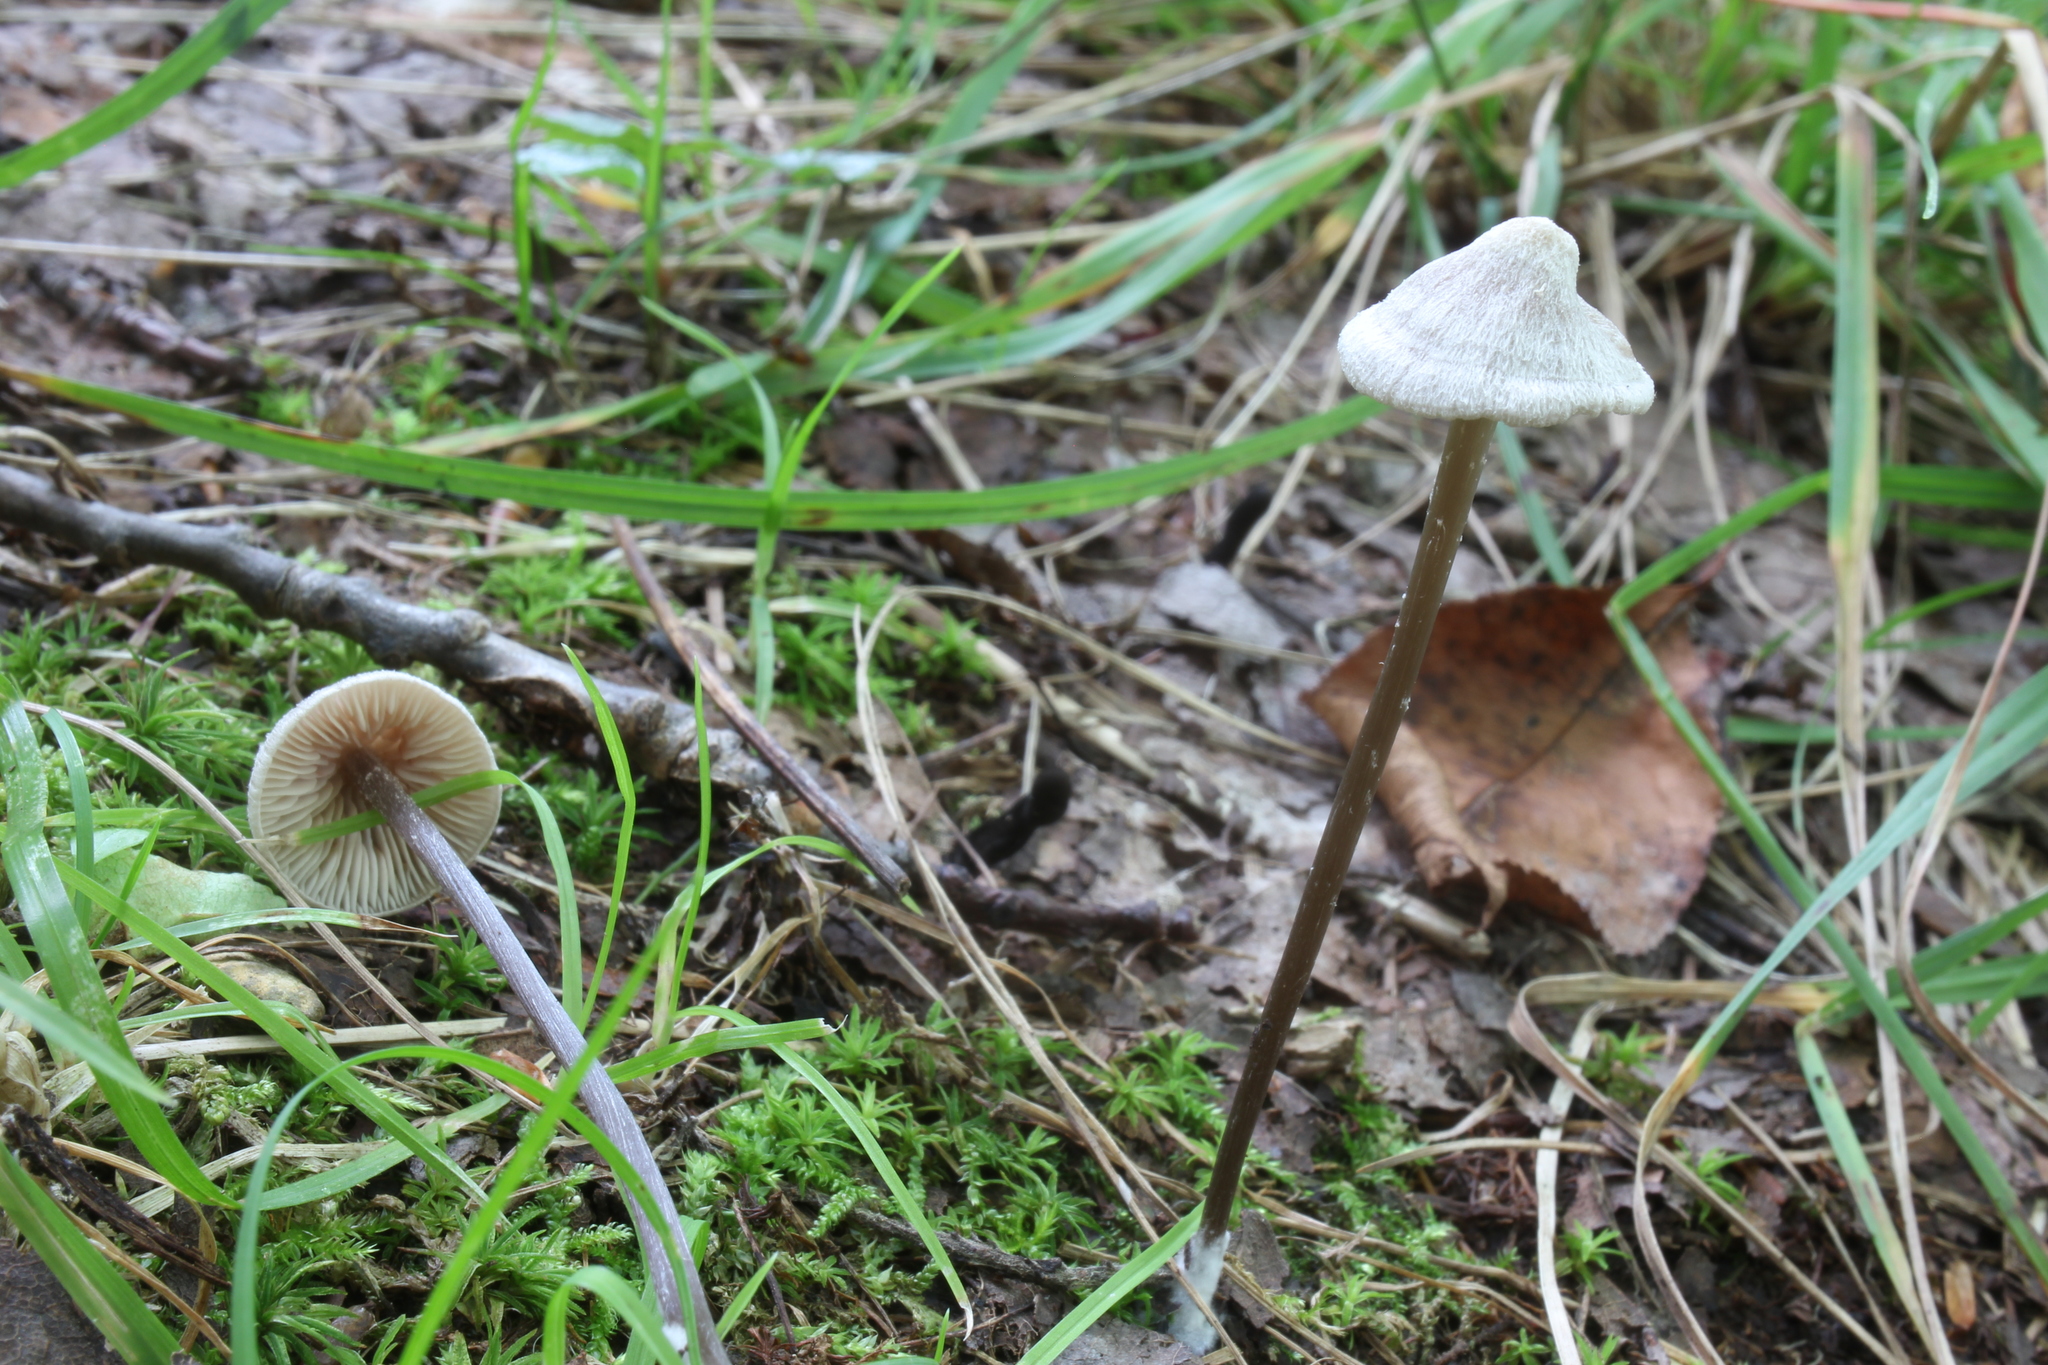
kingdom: Fungi
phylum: Basidiomycota
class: Agaricomycetes
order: Agaricales
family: Entolomataceae
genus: Entoloma
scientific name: Entoloma conicum
